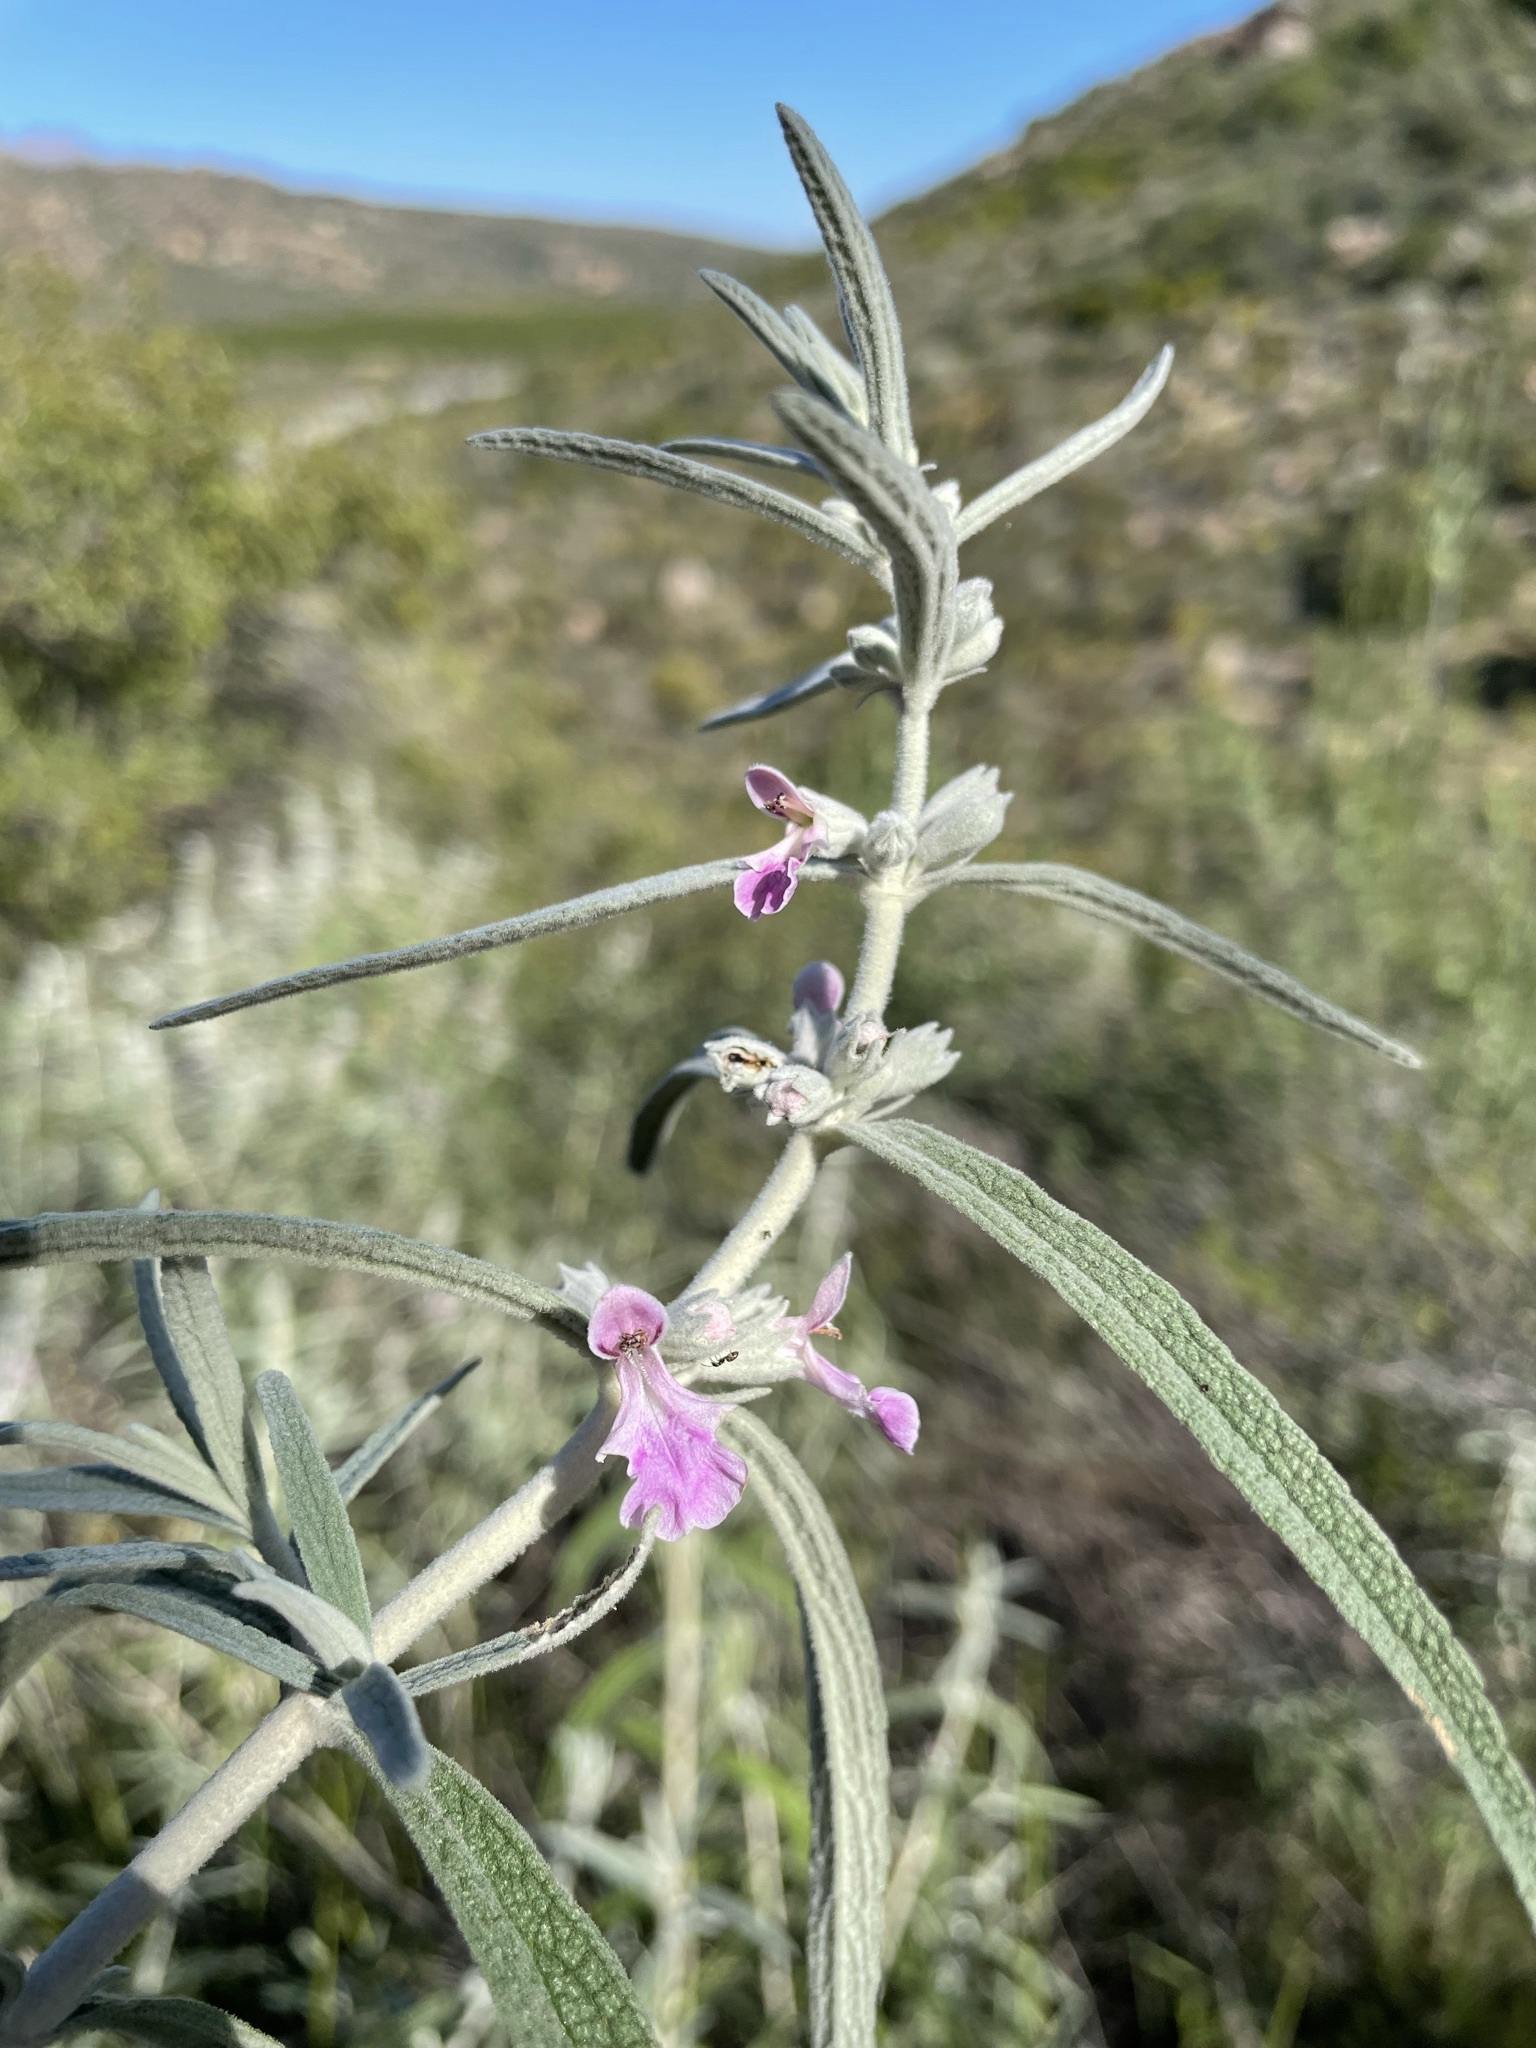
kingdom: Plantae
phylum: Tracheophyta
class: Magnoliopsida
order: Lamiales
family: Lamiaceae
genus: Stachys
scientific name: Stachys rugosa
